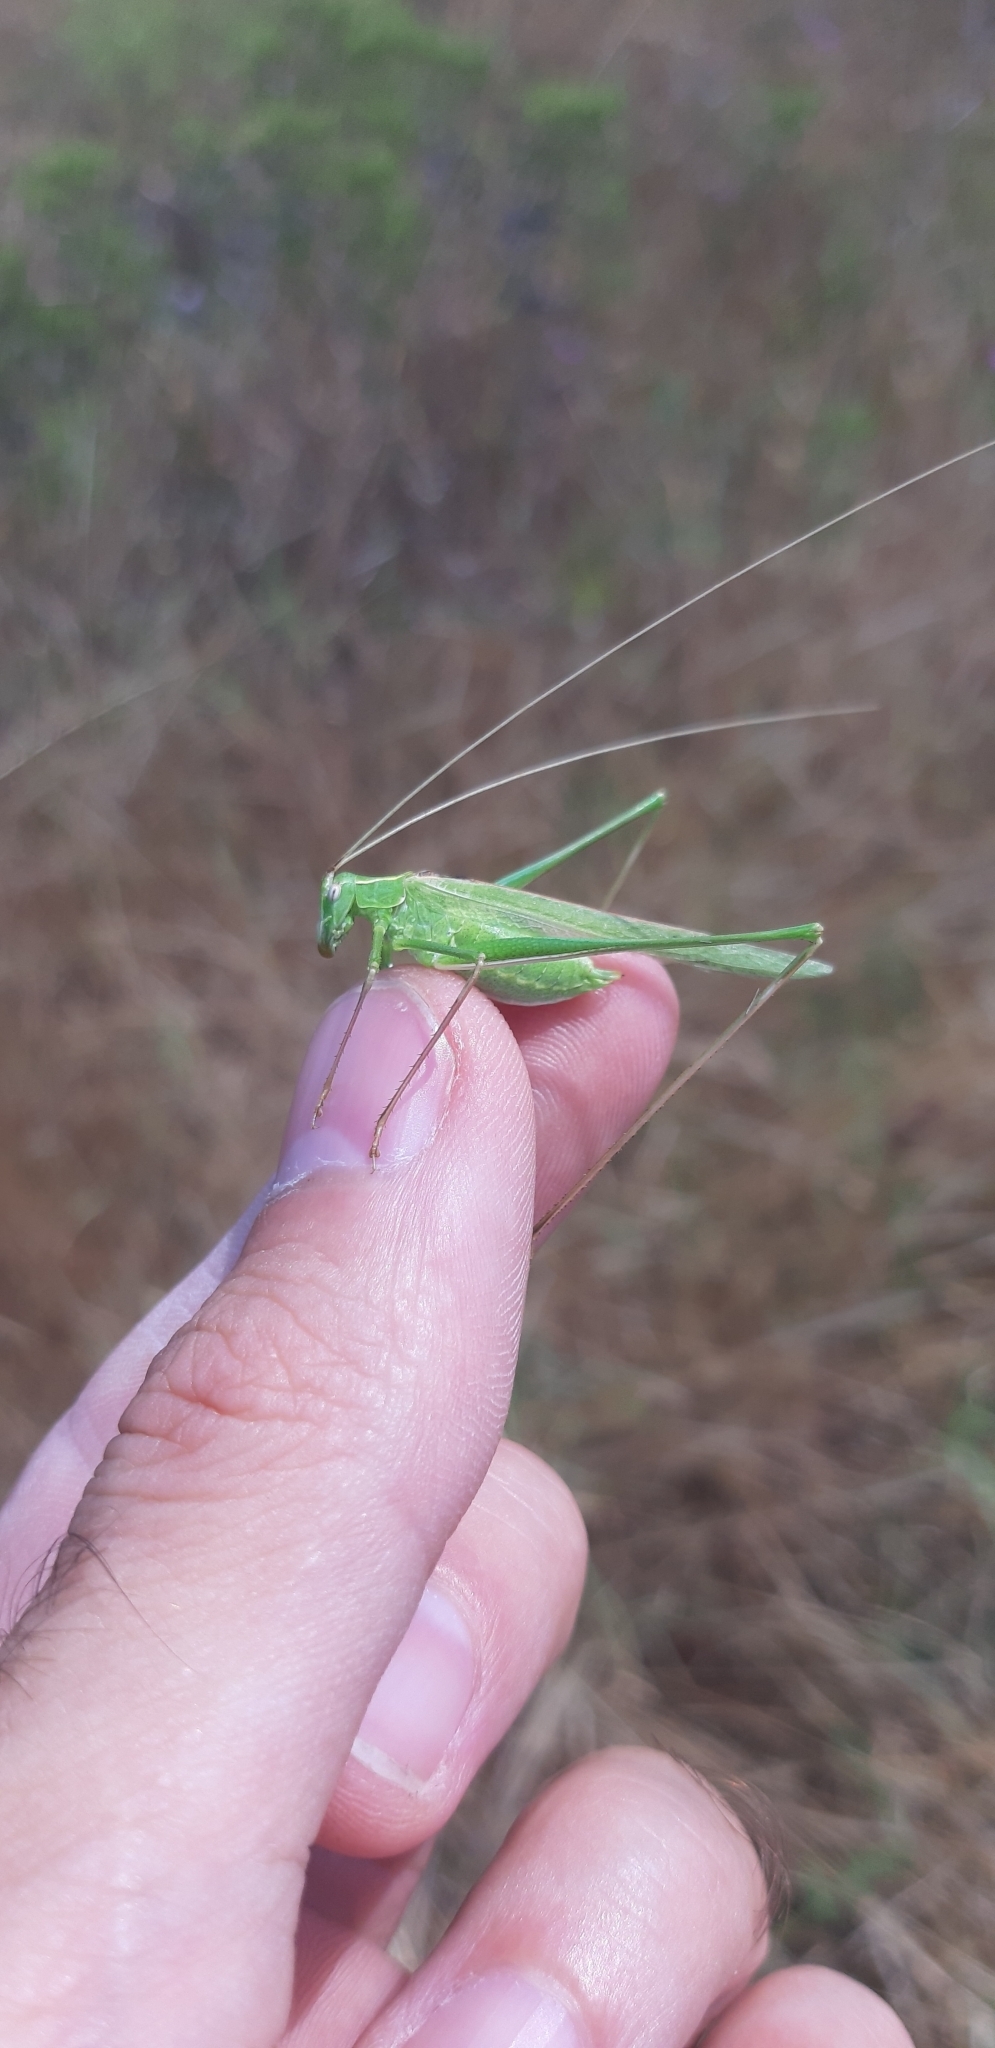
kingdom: Animalia
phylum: Arthropoda
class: Insecta
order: Orthoptera
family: Tettigoniidae
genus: Tylopsis
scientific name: Tylopsis lilifolia
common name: Lily bush-cricket
